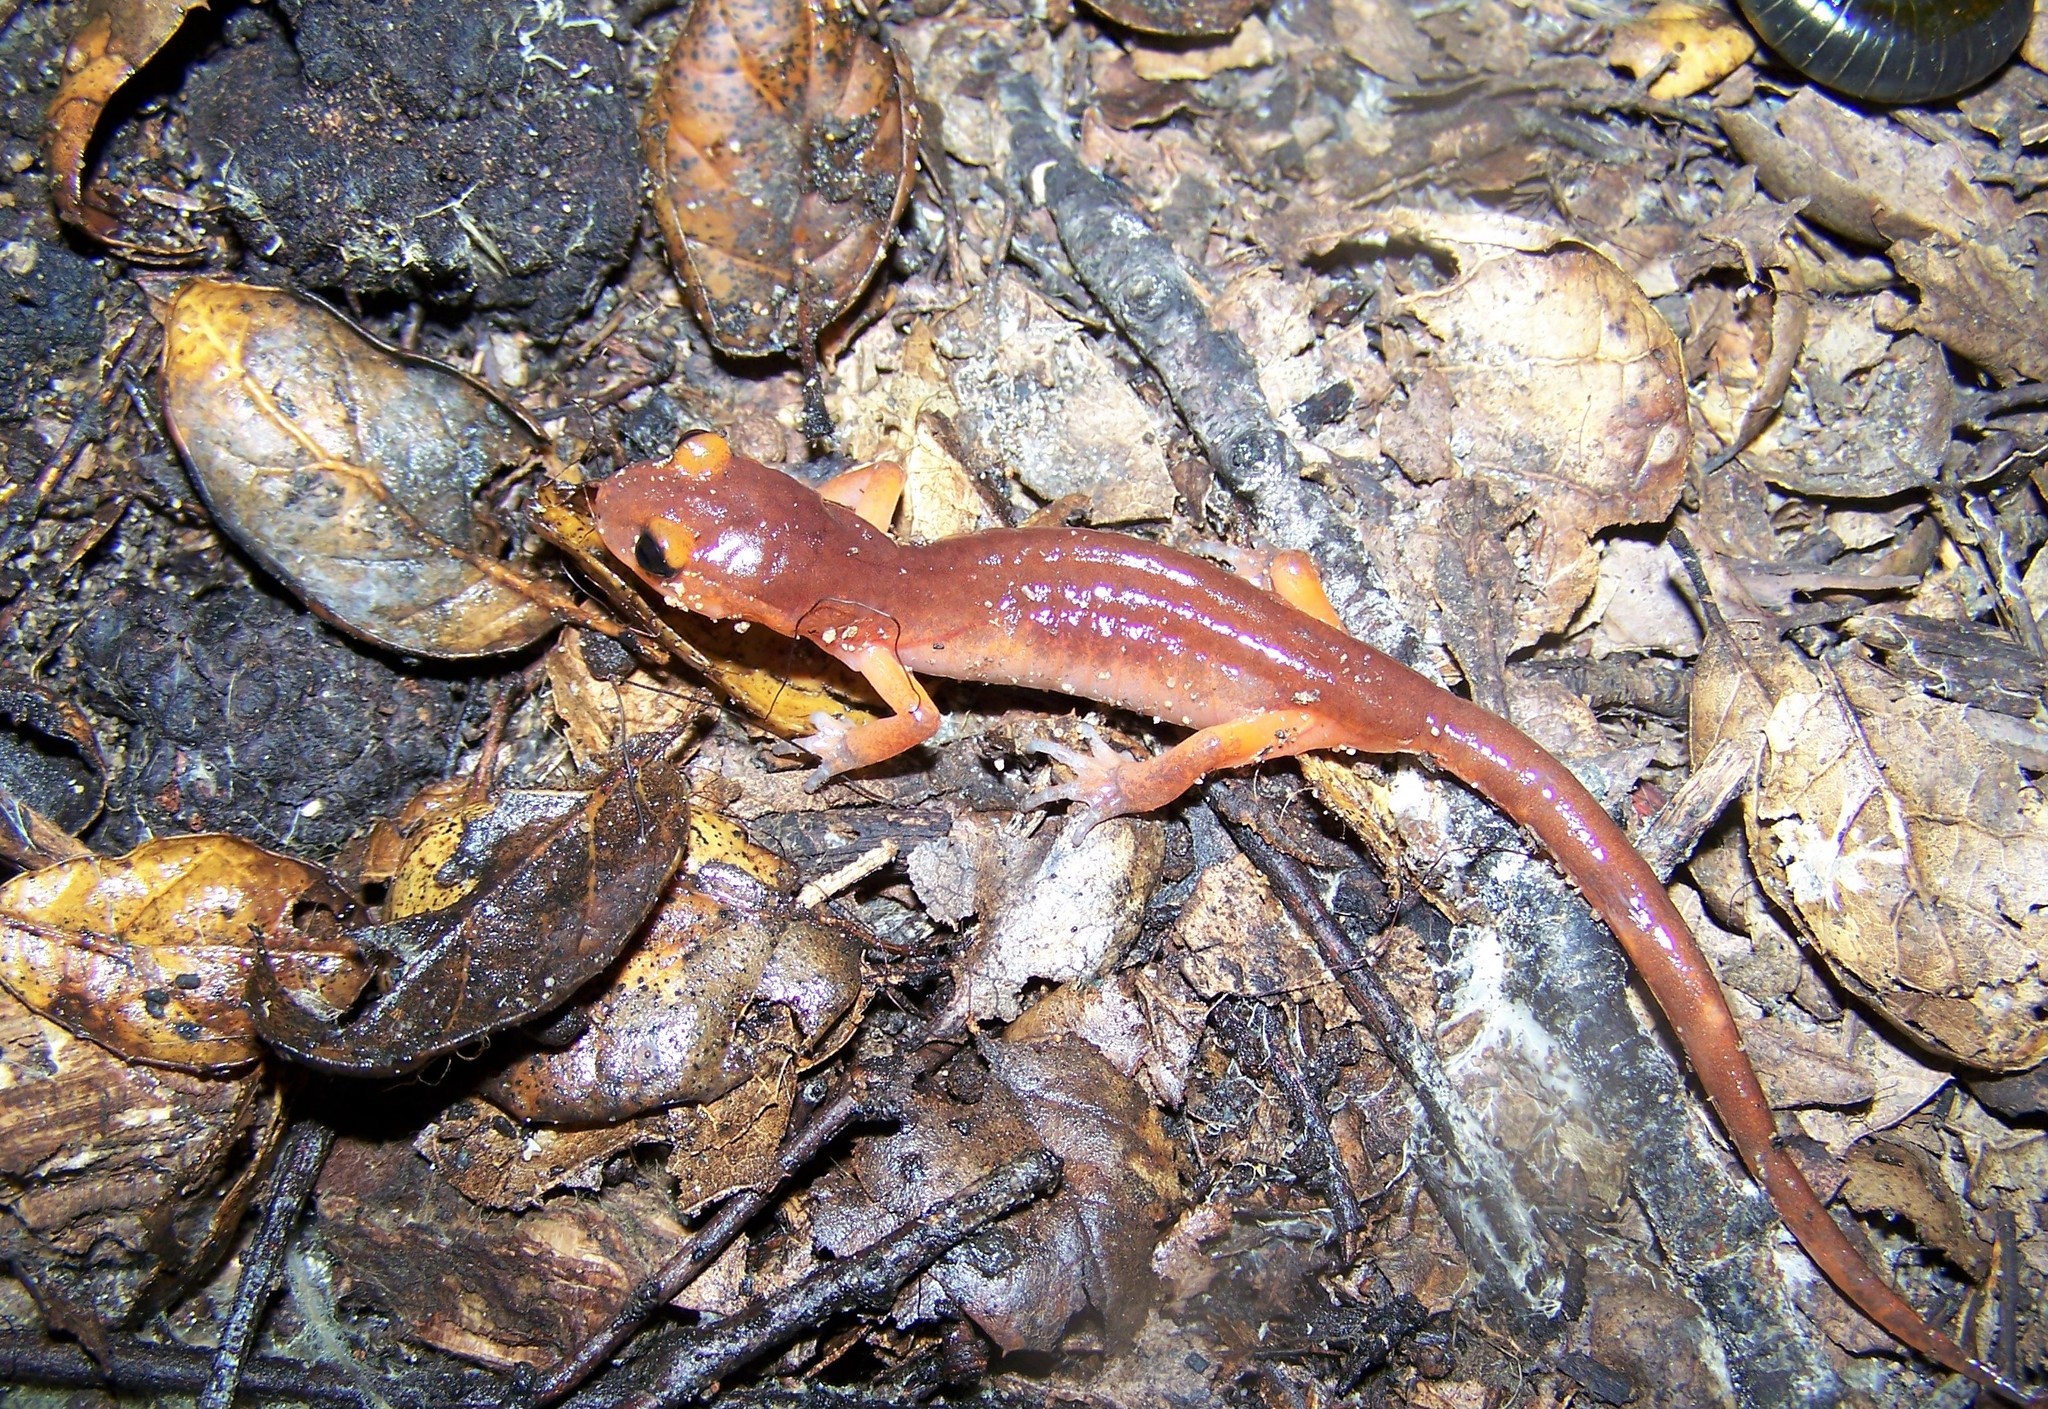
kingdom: Animalia
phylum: Chordata
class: Amphibia
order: Caudata
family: Plethodontidae
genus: Ensatina
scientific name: Ensatina eschscholtzii
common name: Ensatina
